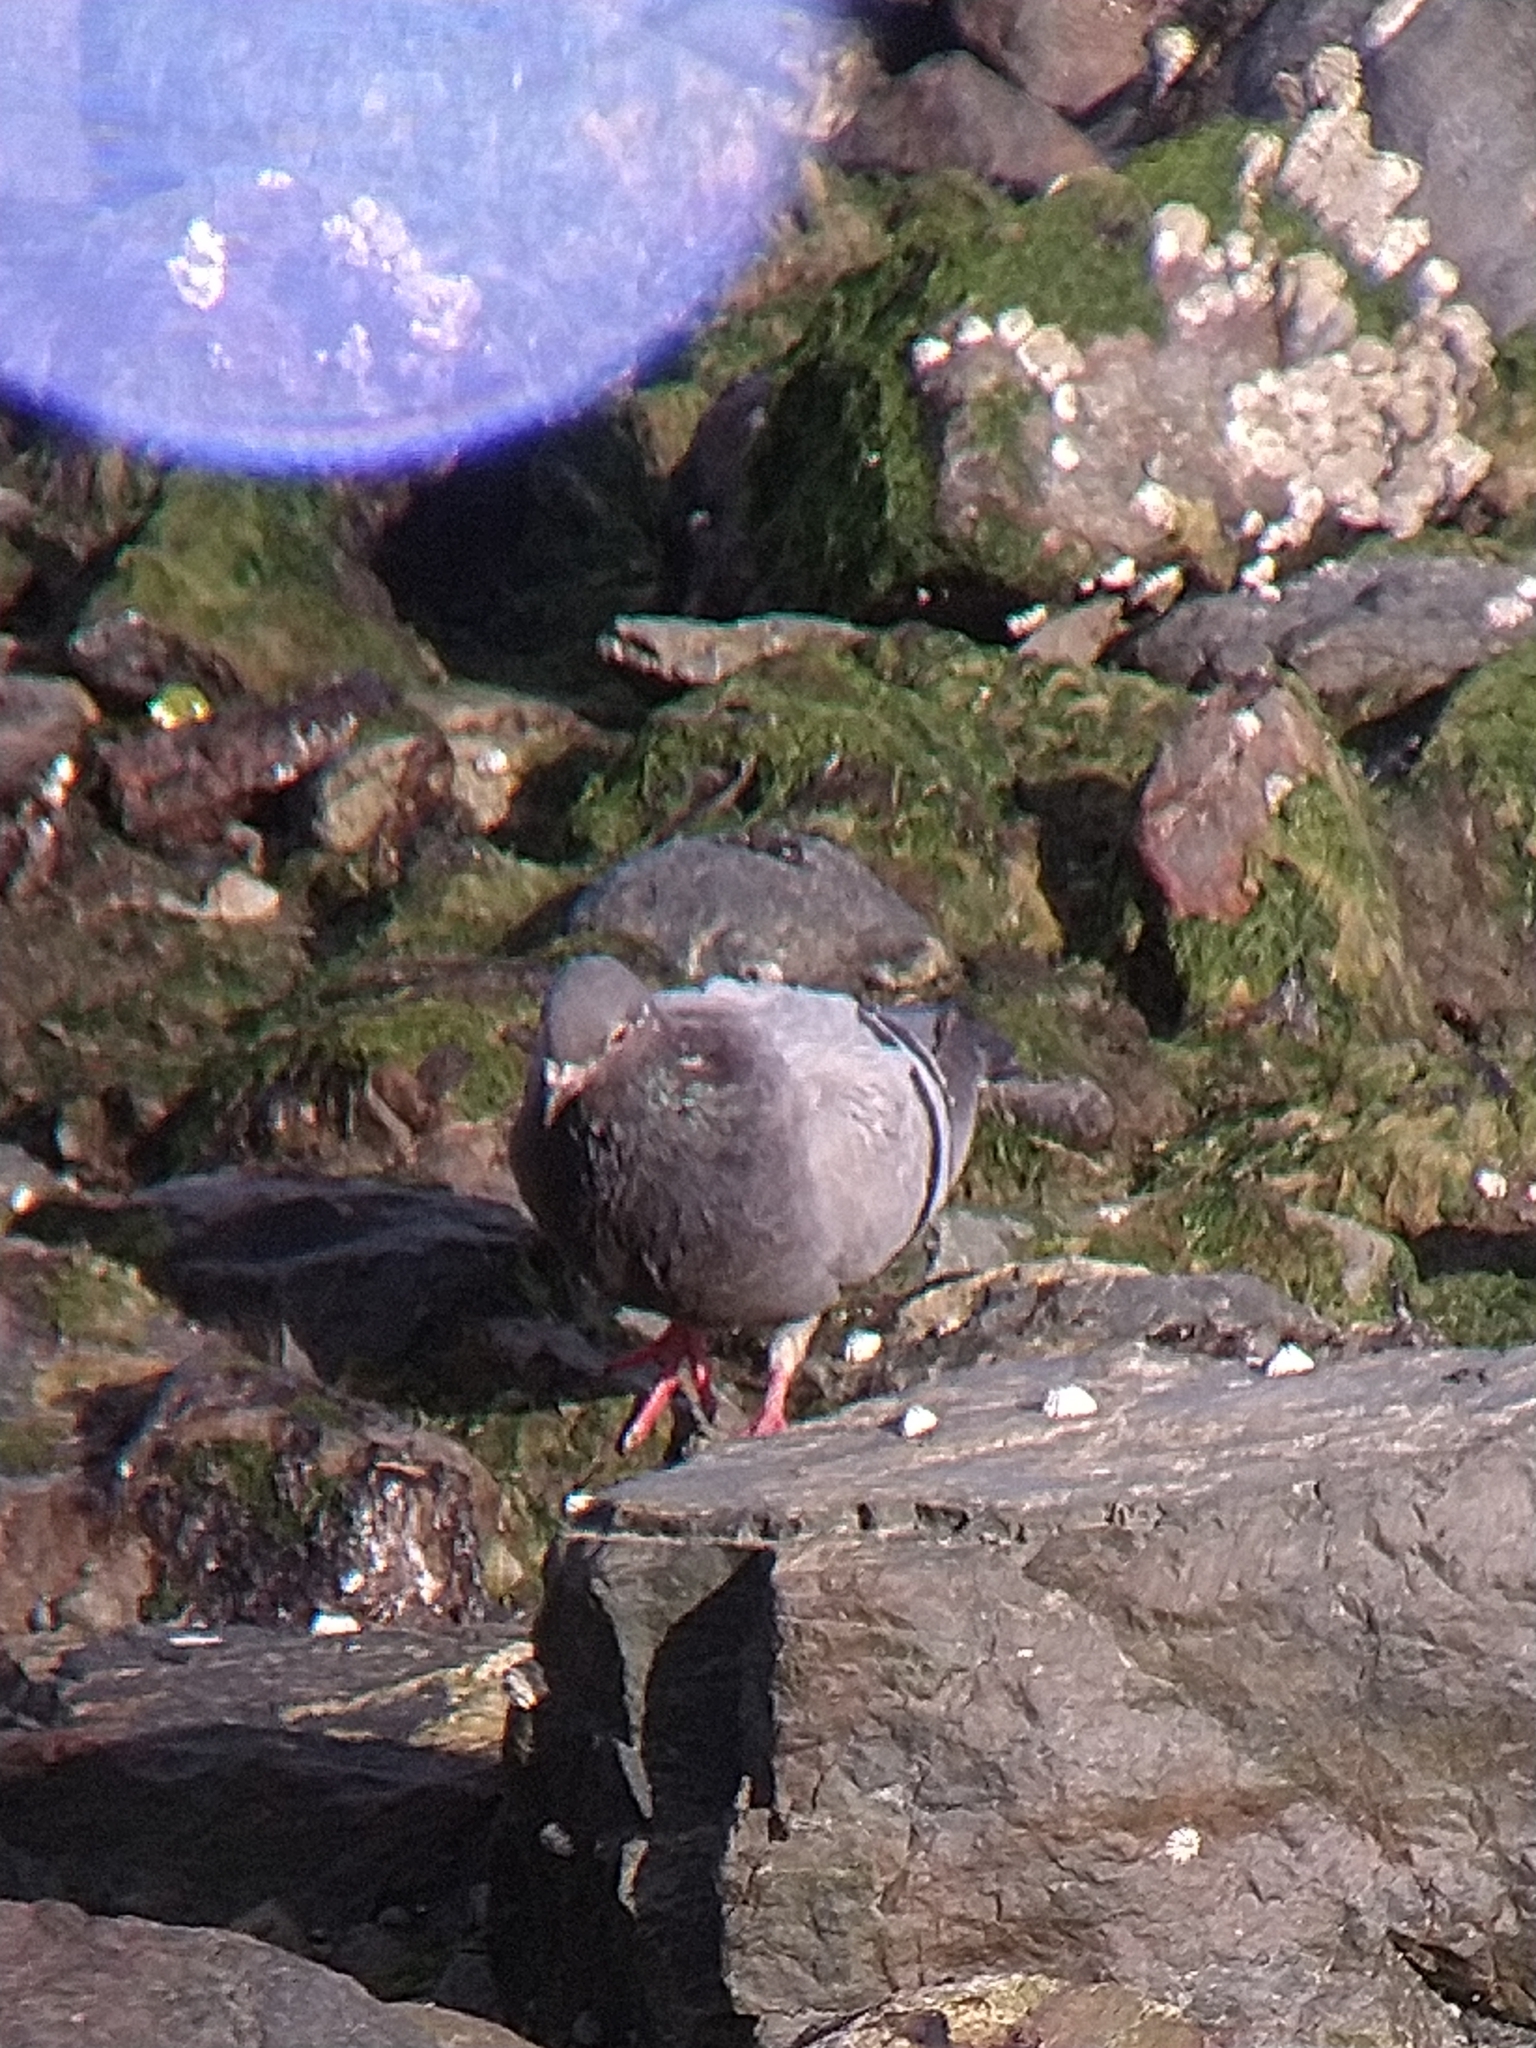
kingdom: Animalia
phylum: Chordata
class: Aves
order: Columbiformes
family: Columbidae
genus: Columba
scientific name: Columba livia
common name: Rock pigeon
